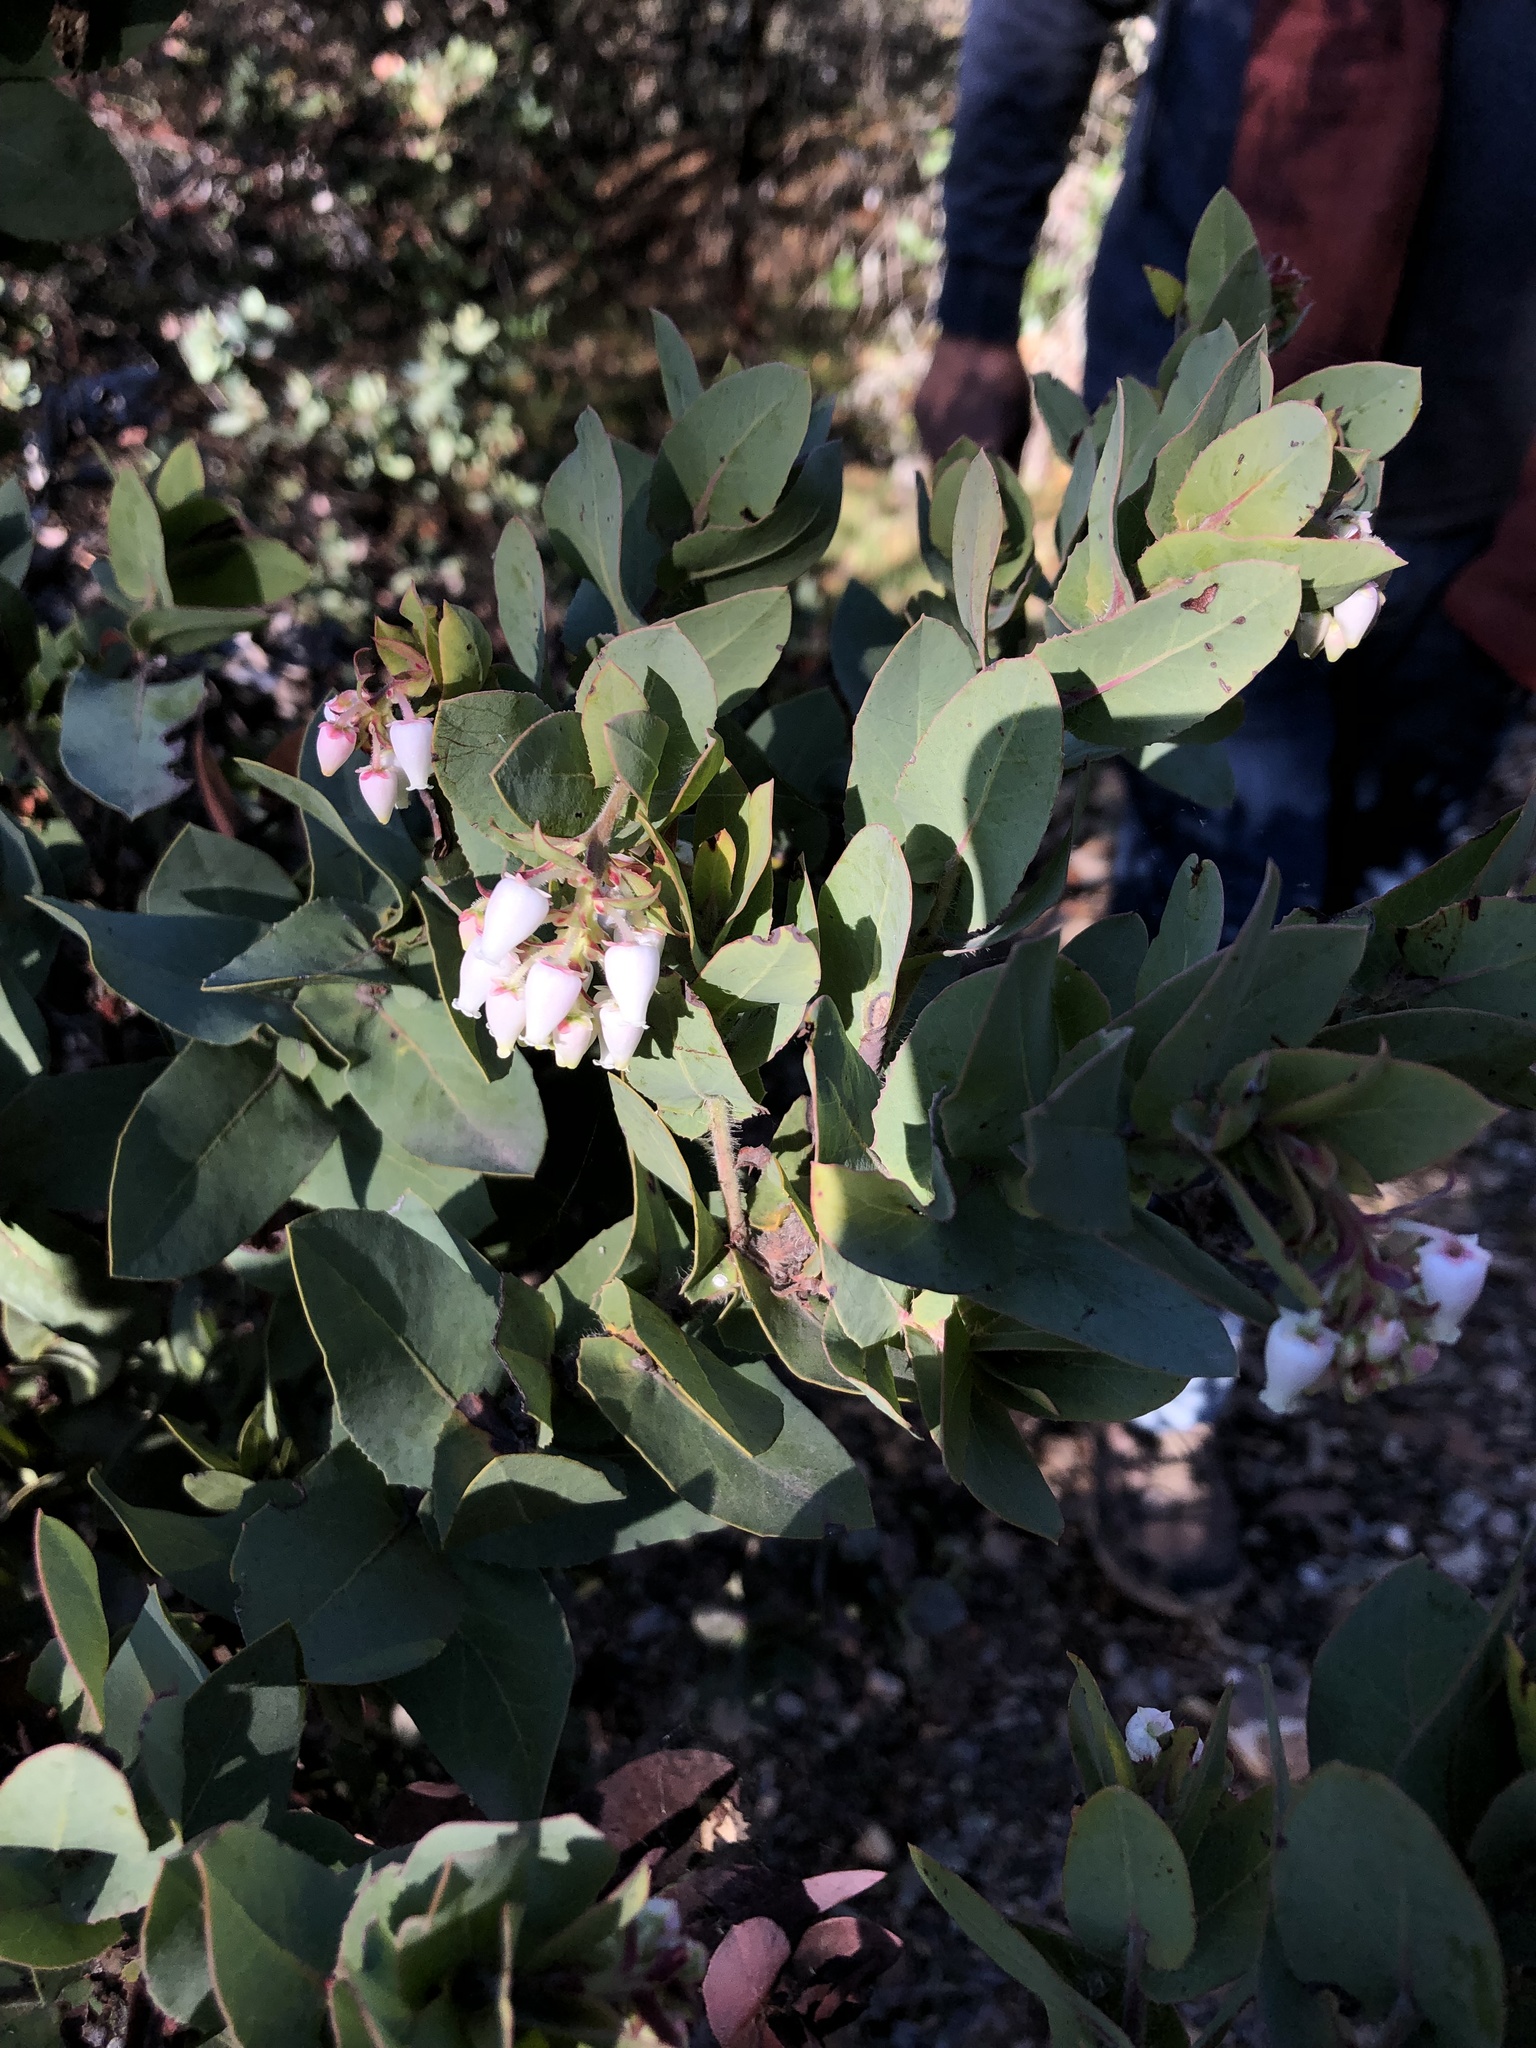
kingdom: Plantae
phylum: Tracheophyta
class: Magnoliopsida
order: Ericales
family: Ericaceae
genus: Arctostaphylos
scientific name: Arctostaphylos pallida
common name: Pallid manzanita
